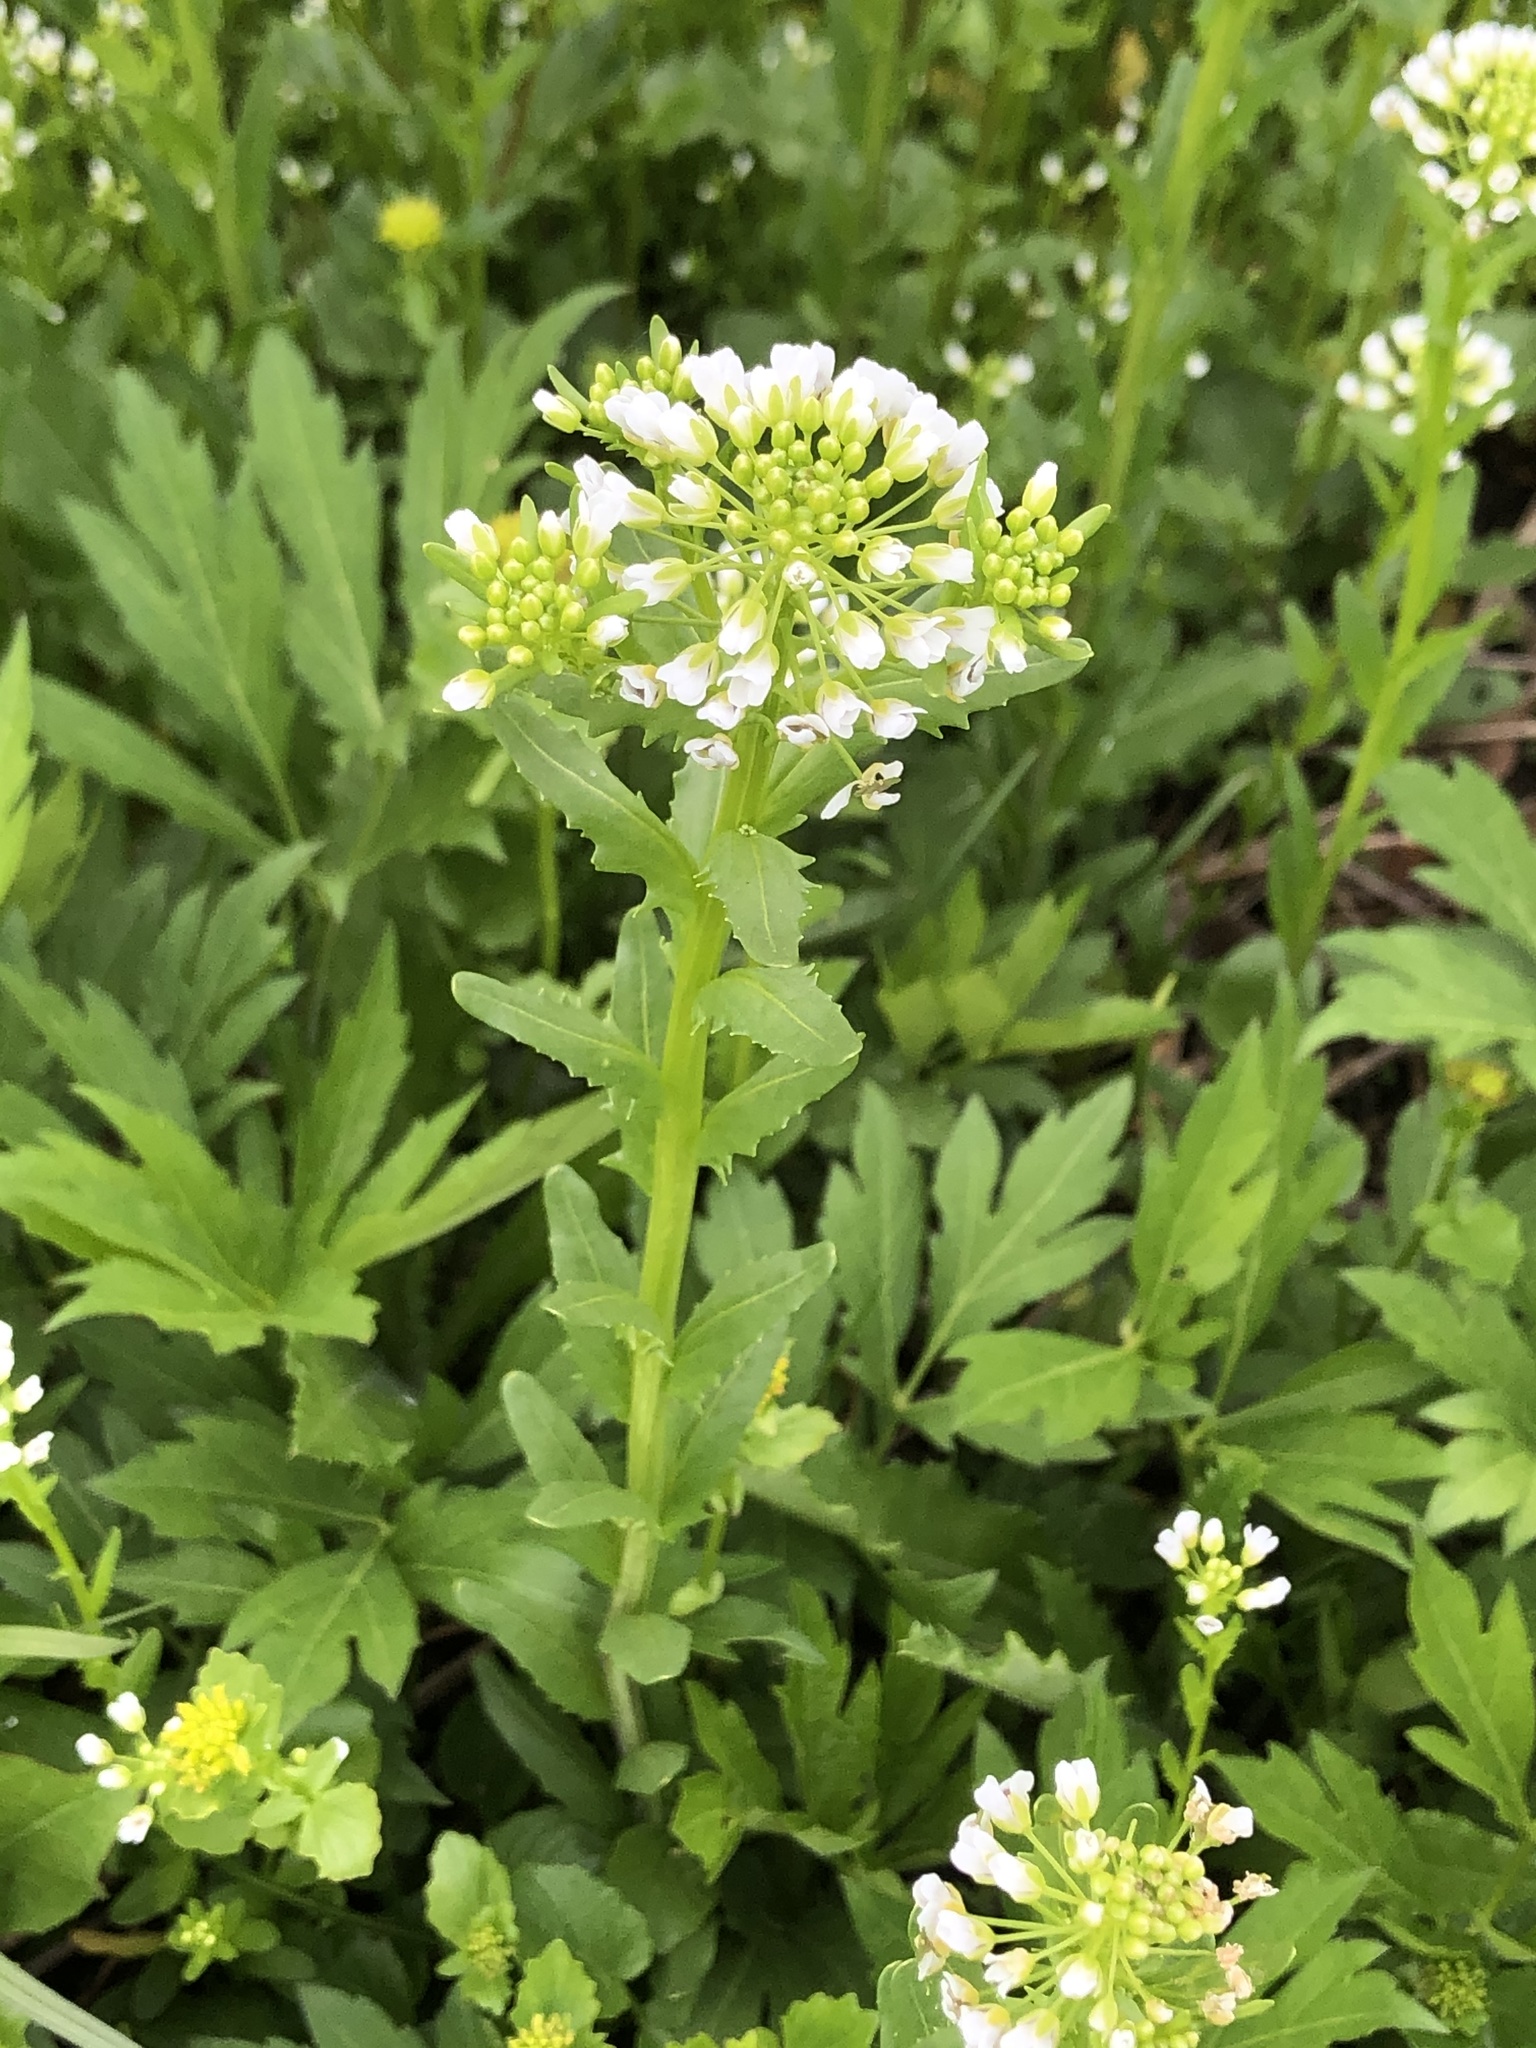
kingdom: Plantae
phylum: Tracheophyta
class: Magnoliopsida
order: Brassicales
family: Brassicaceae
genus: Thlaspi
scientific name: Thlaspi arvense
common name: Field pennycress
